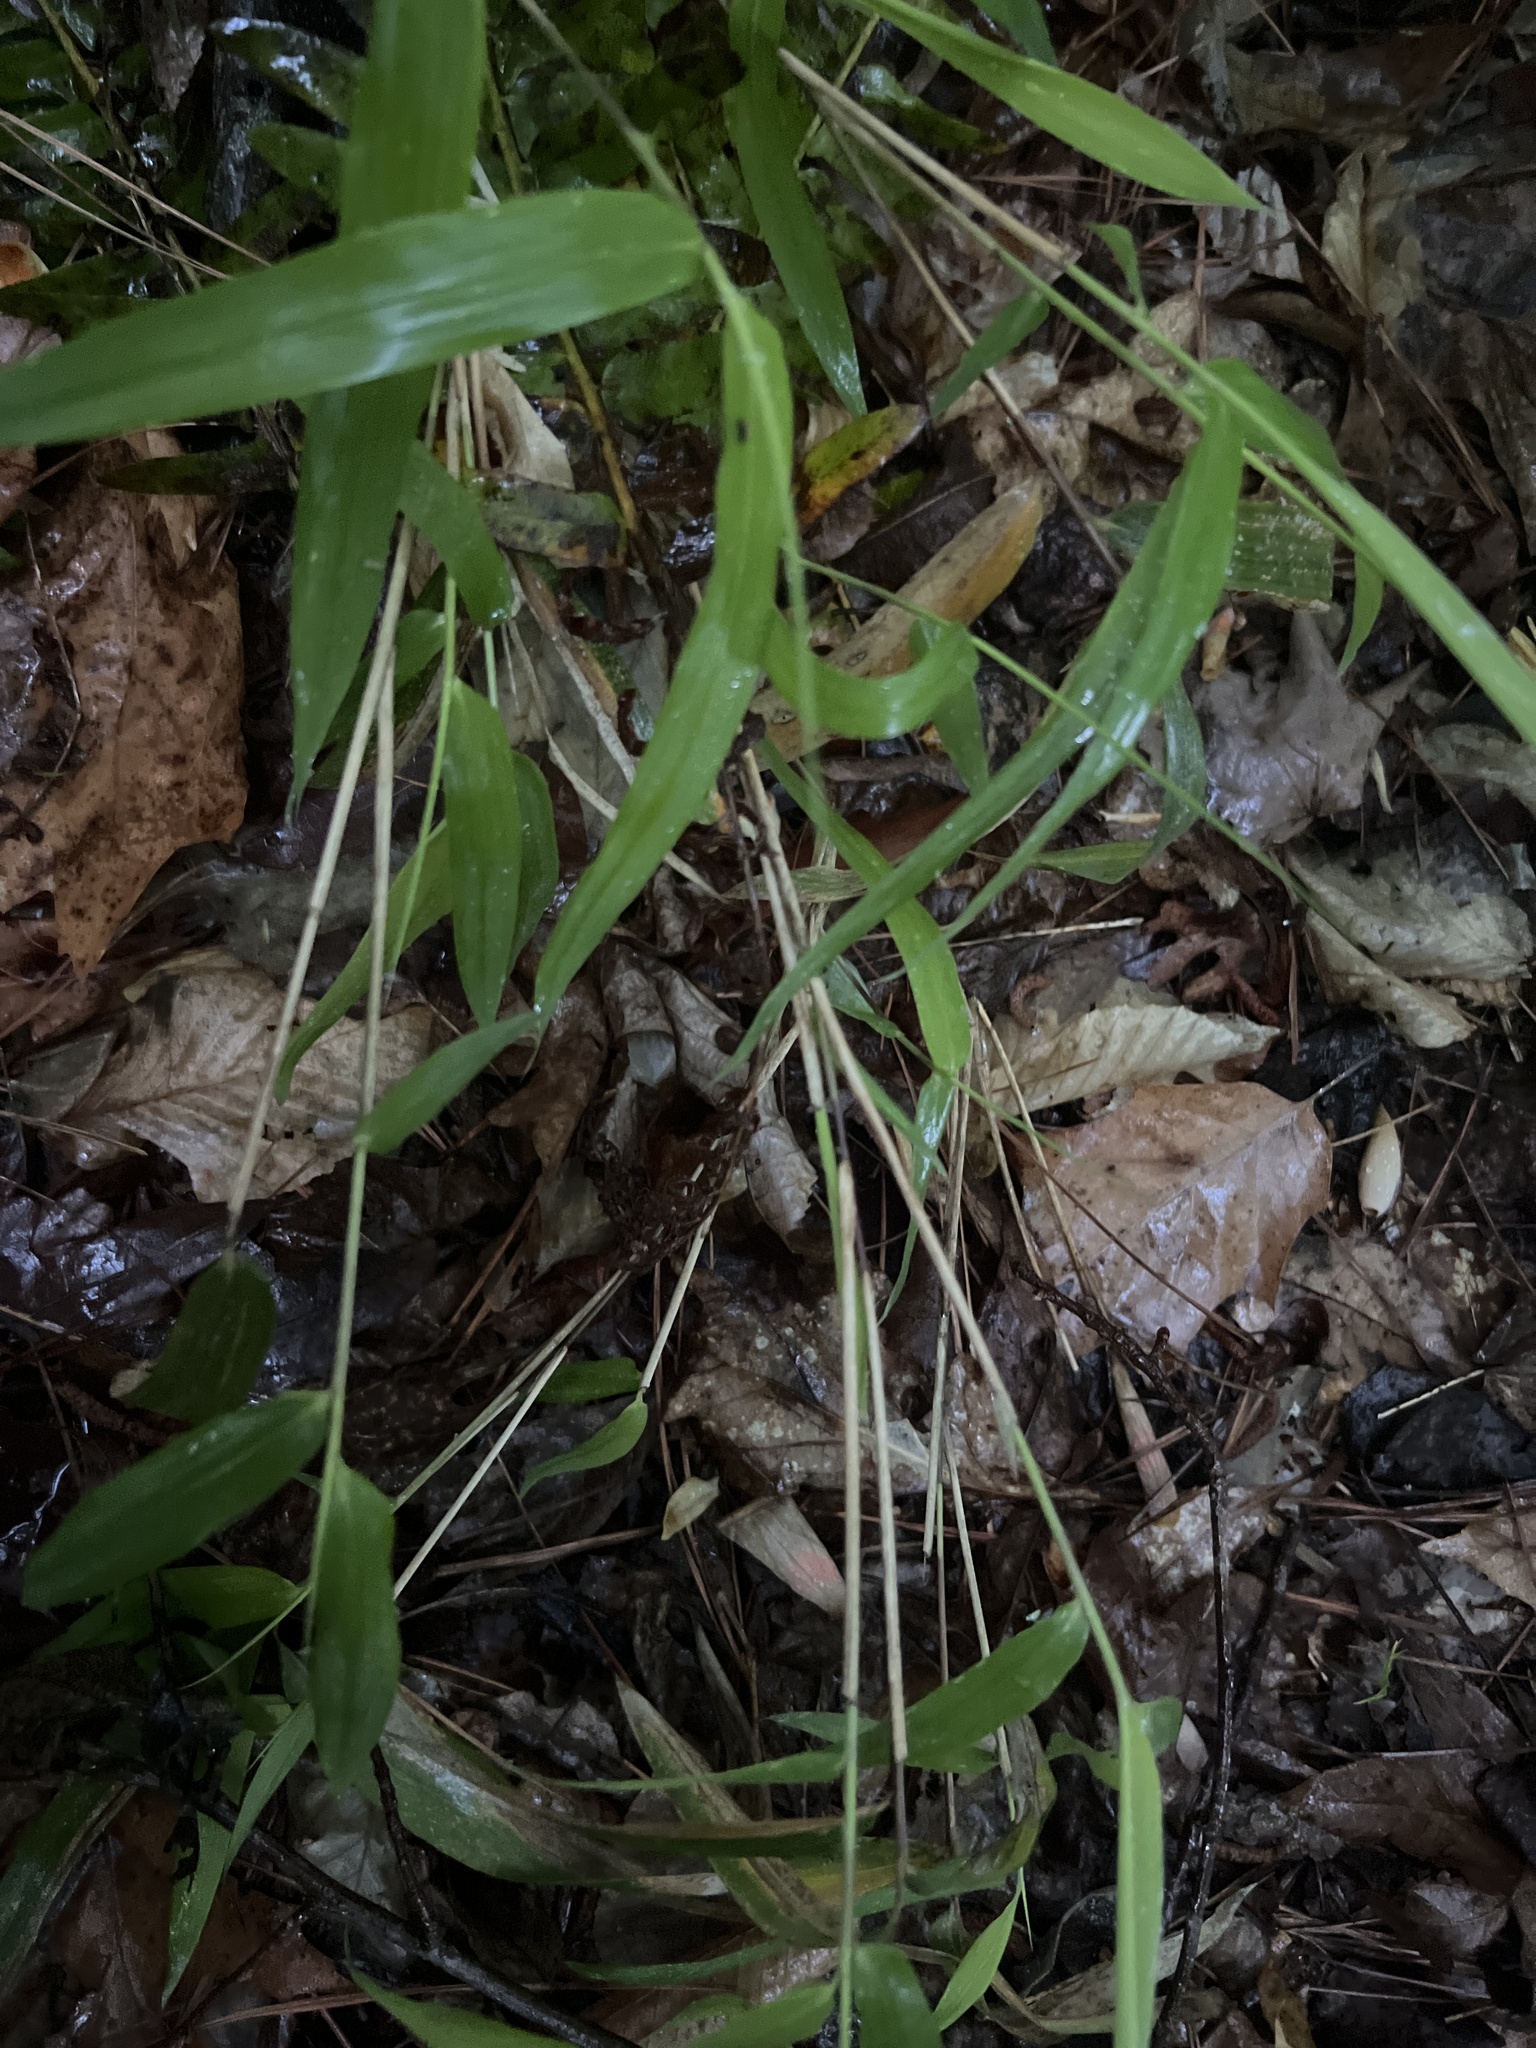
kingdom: Plantae
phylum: Tracheophyta
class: Liliopsida
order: Poales
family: Poaceae
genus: Arundinaria
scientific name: Arundinaria tecta
